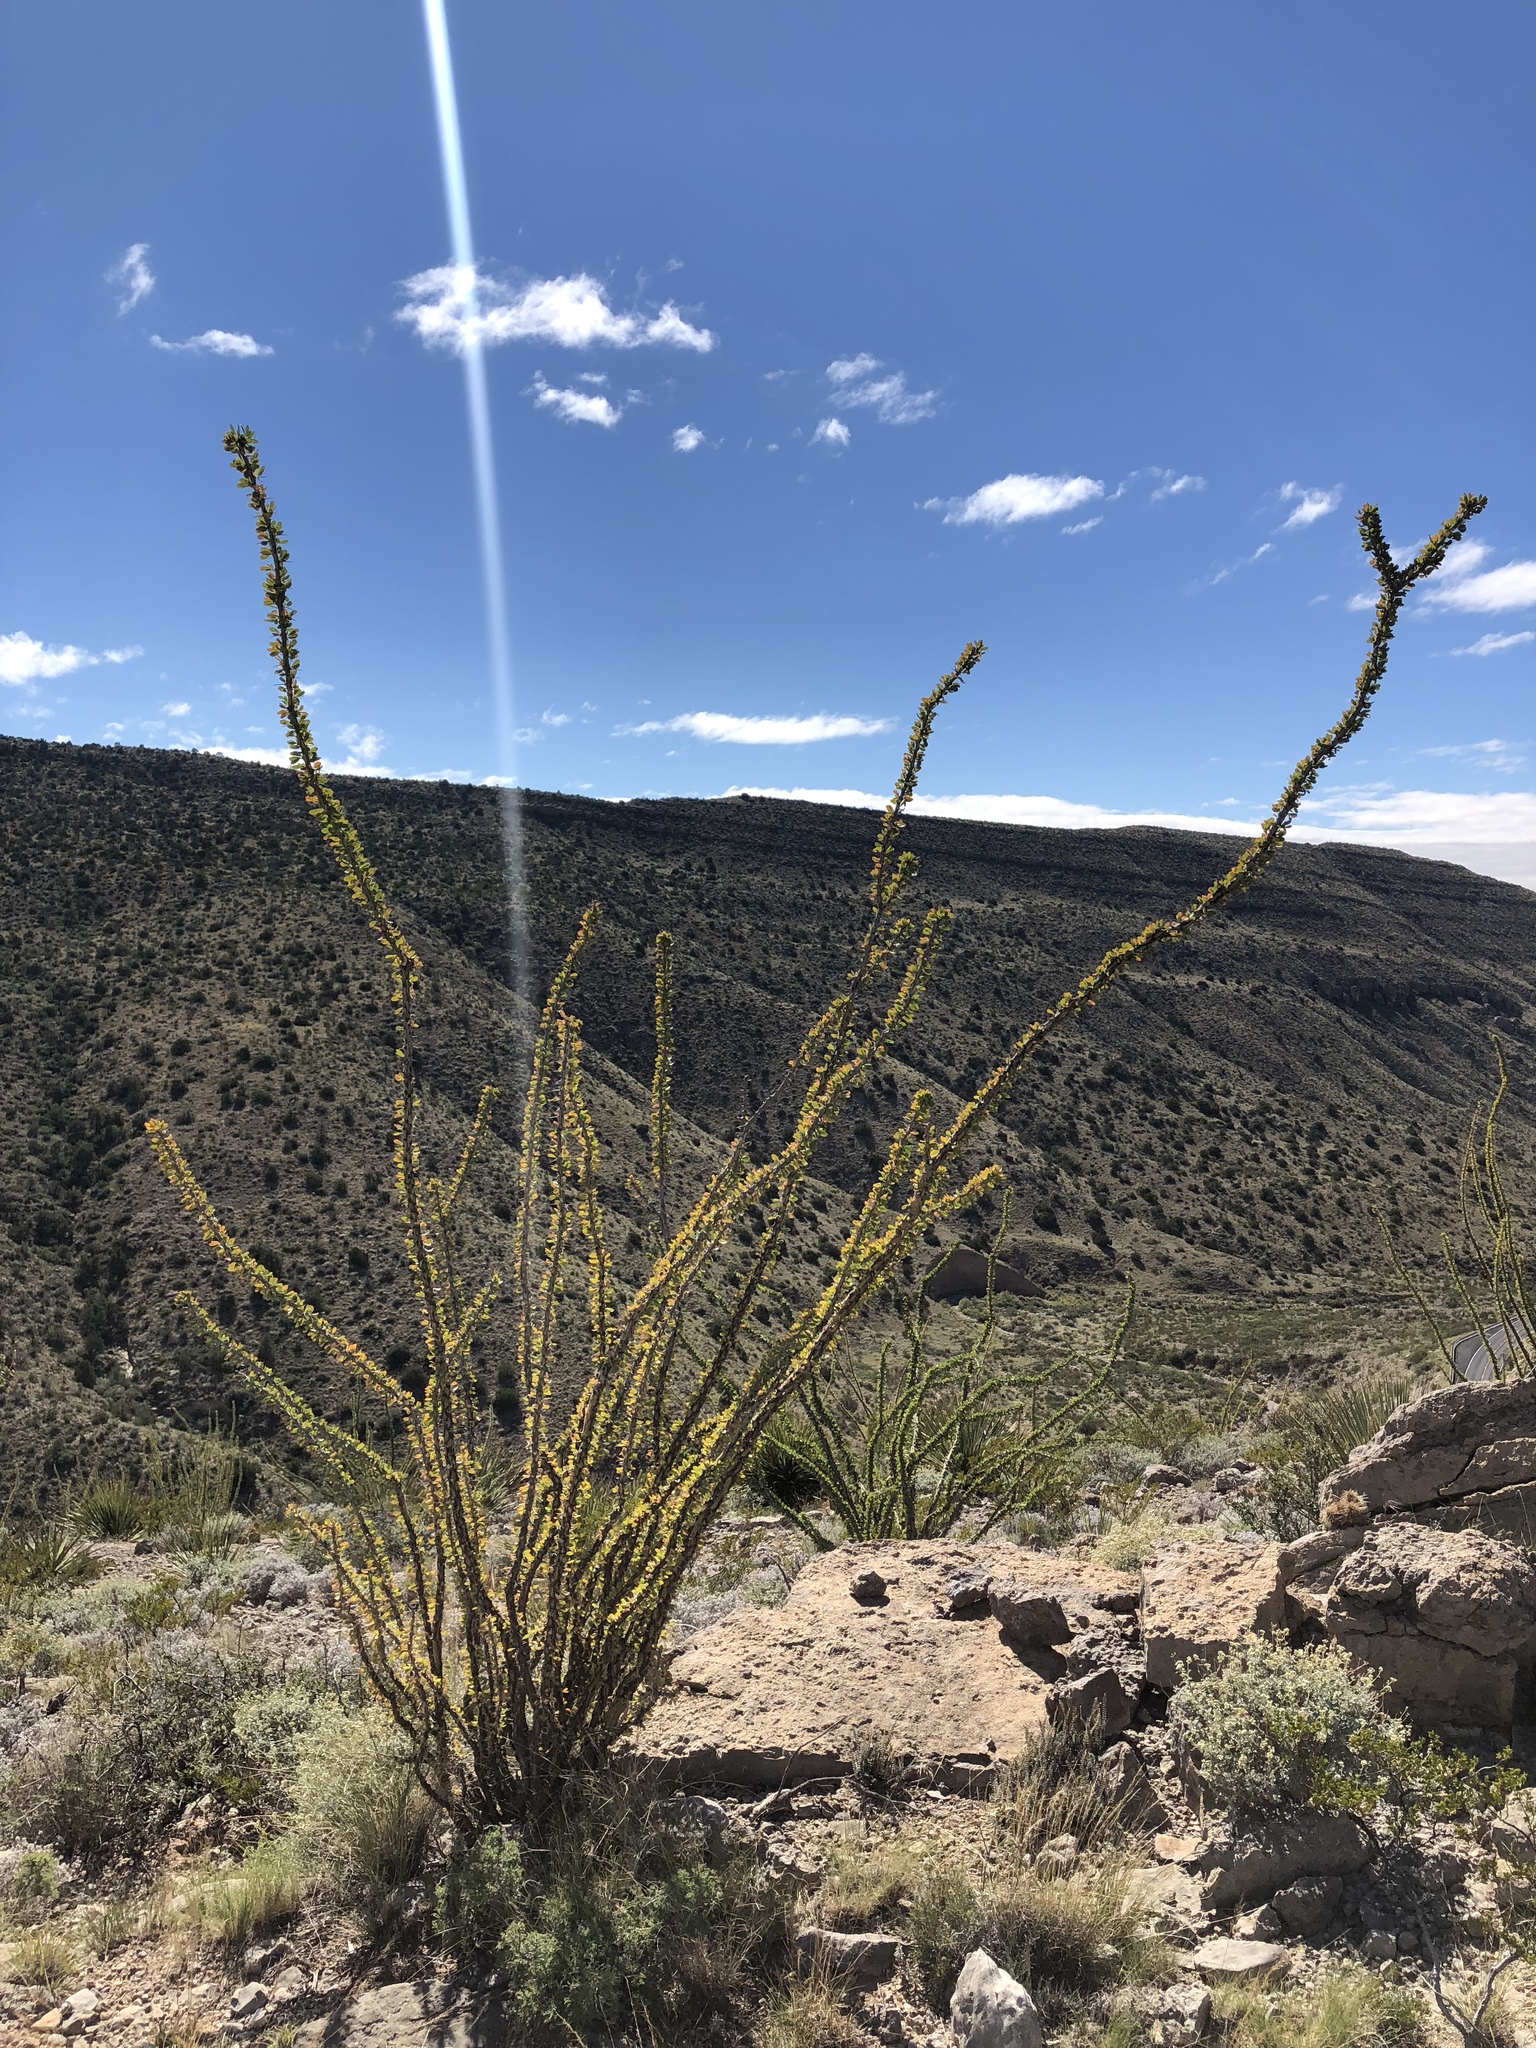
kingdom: Plantae
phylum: Tracheophyta
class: Magnoliopsida
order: Ericales
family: Fouquieriaceae
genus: Fouquieria
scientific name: Fouquieria splendens
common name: Vine-cactus
